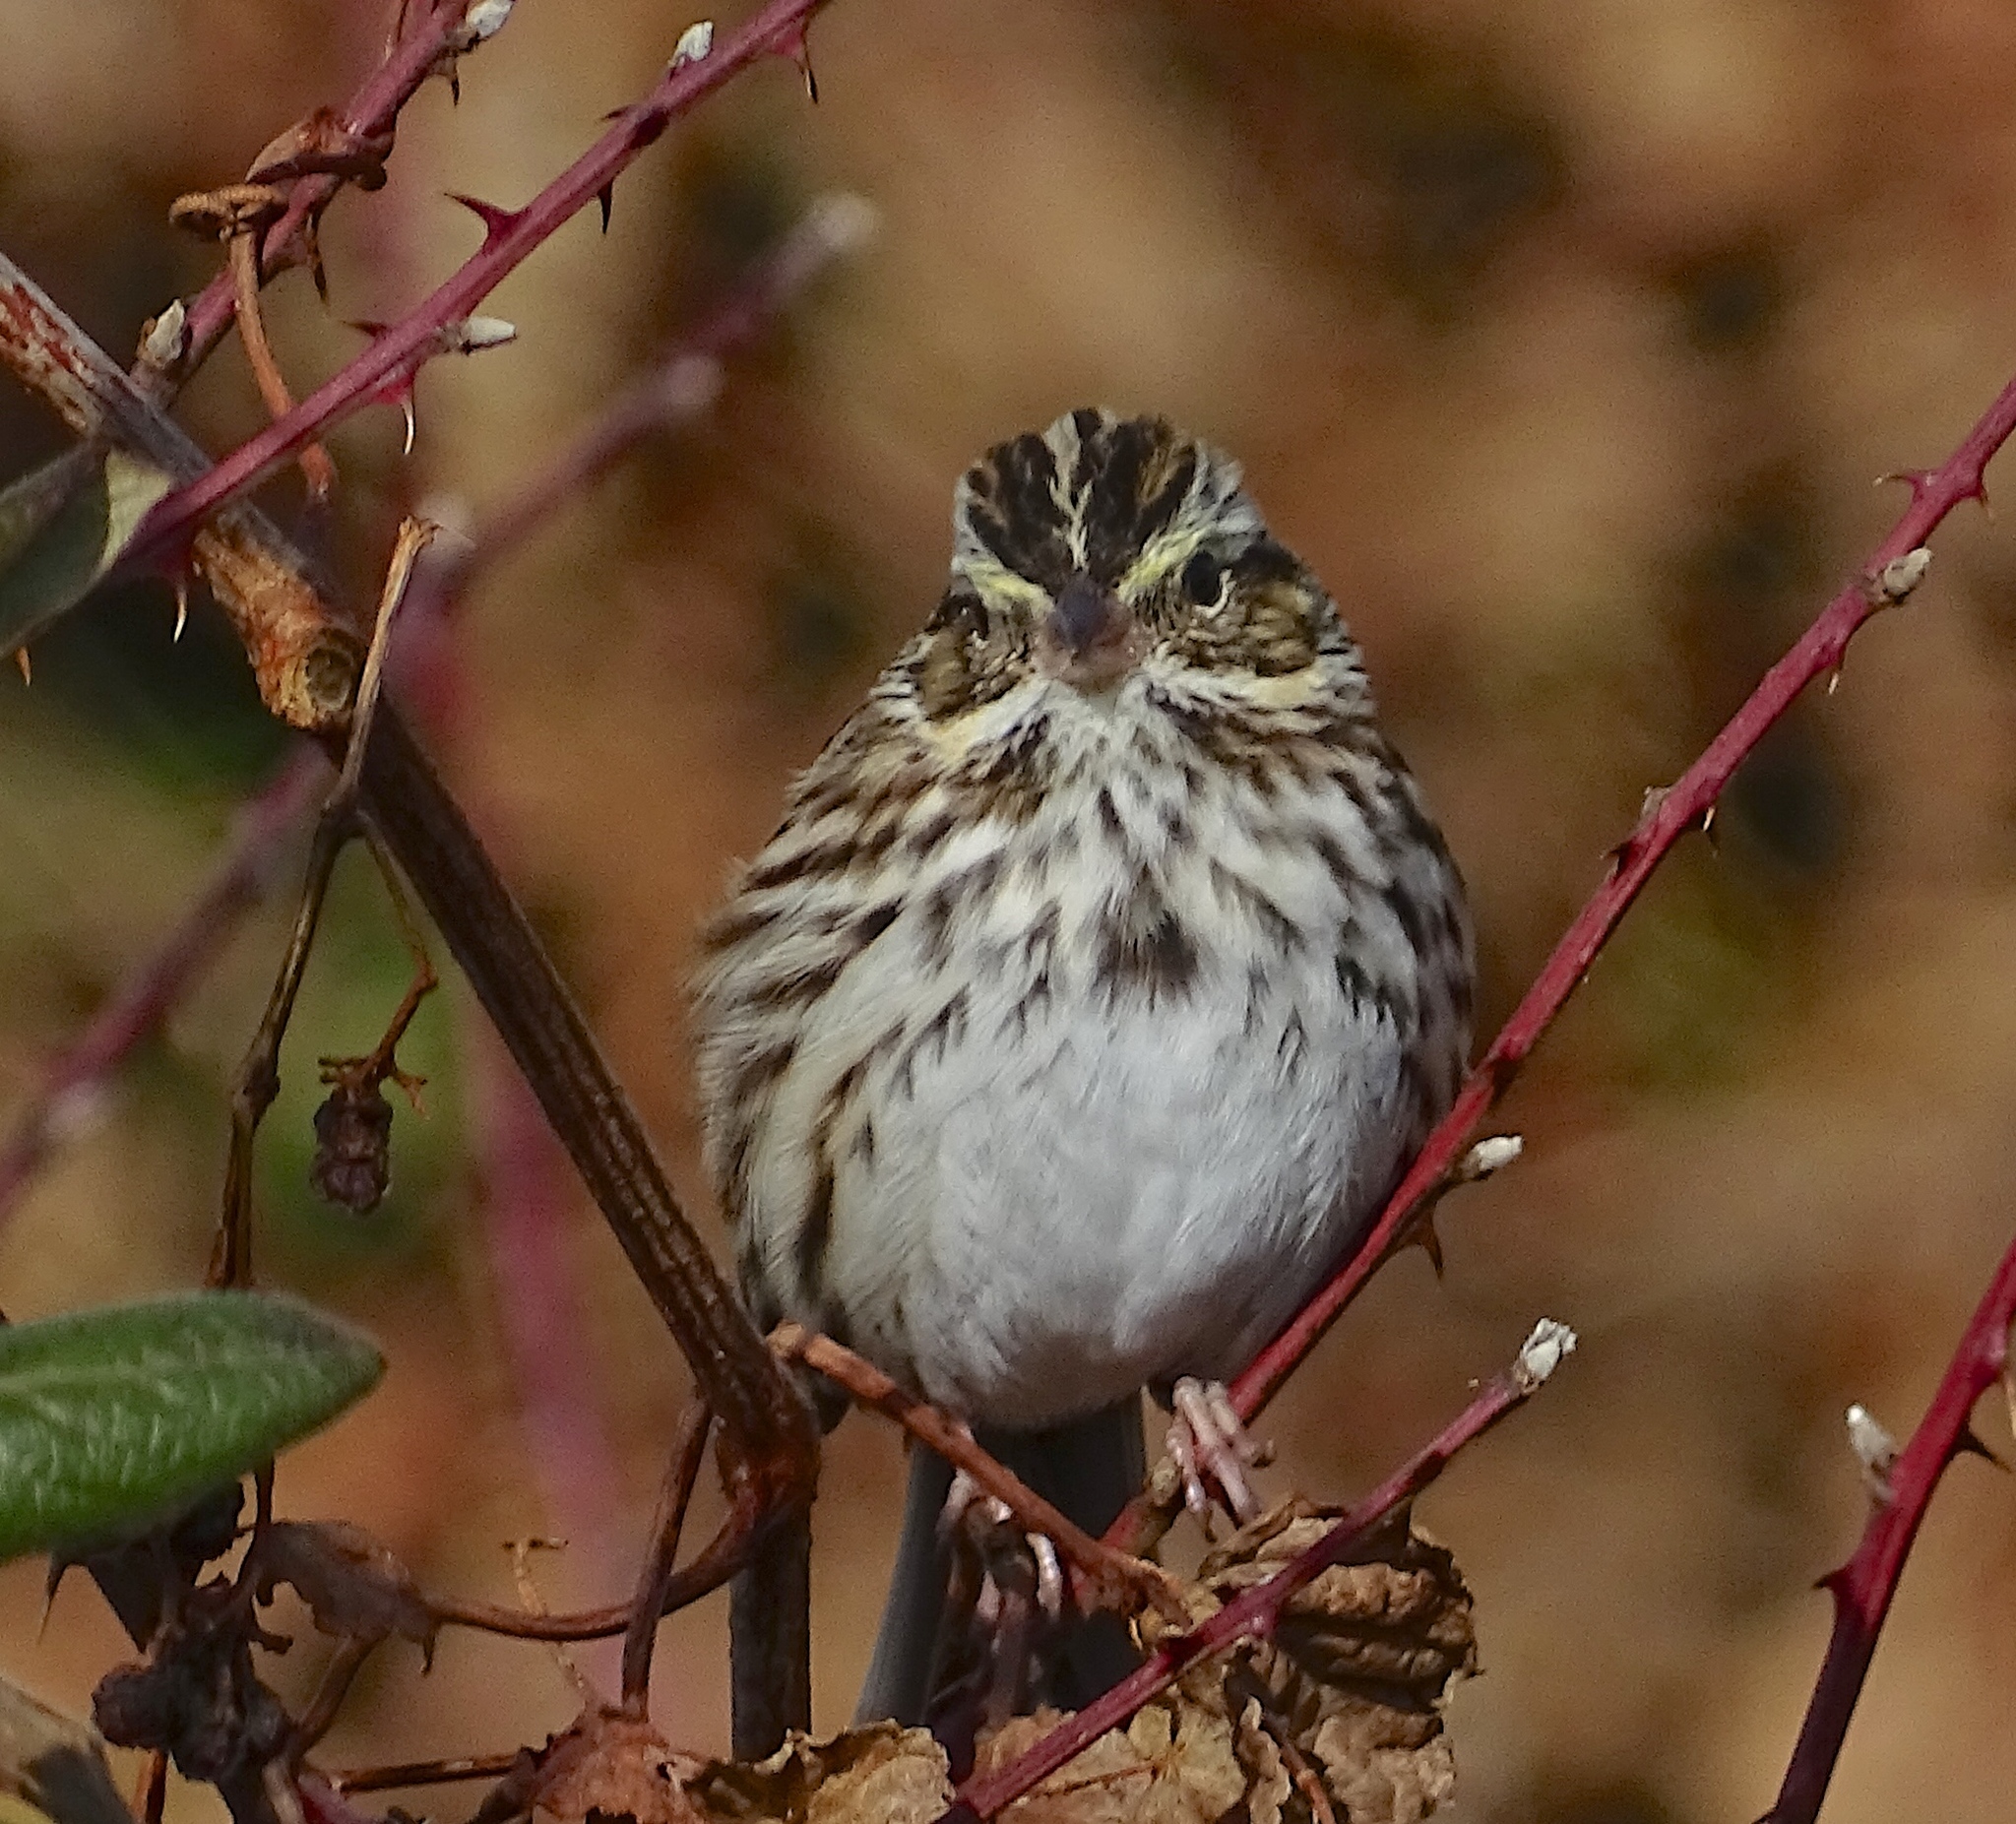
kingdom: Animalia
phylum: Chordata
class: Aves
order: Passeriformes
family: Passerellidae
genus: Passerculus
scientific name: Passerculus sandwichensis
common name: Savannah sparrow
